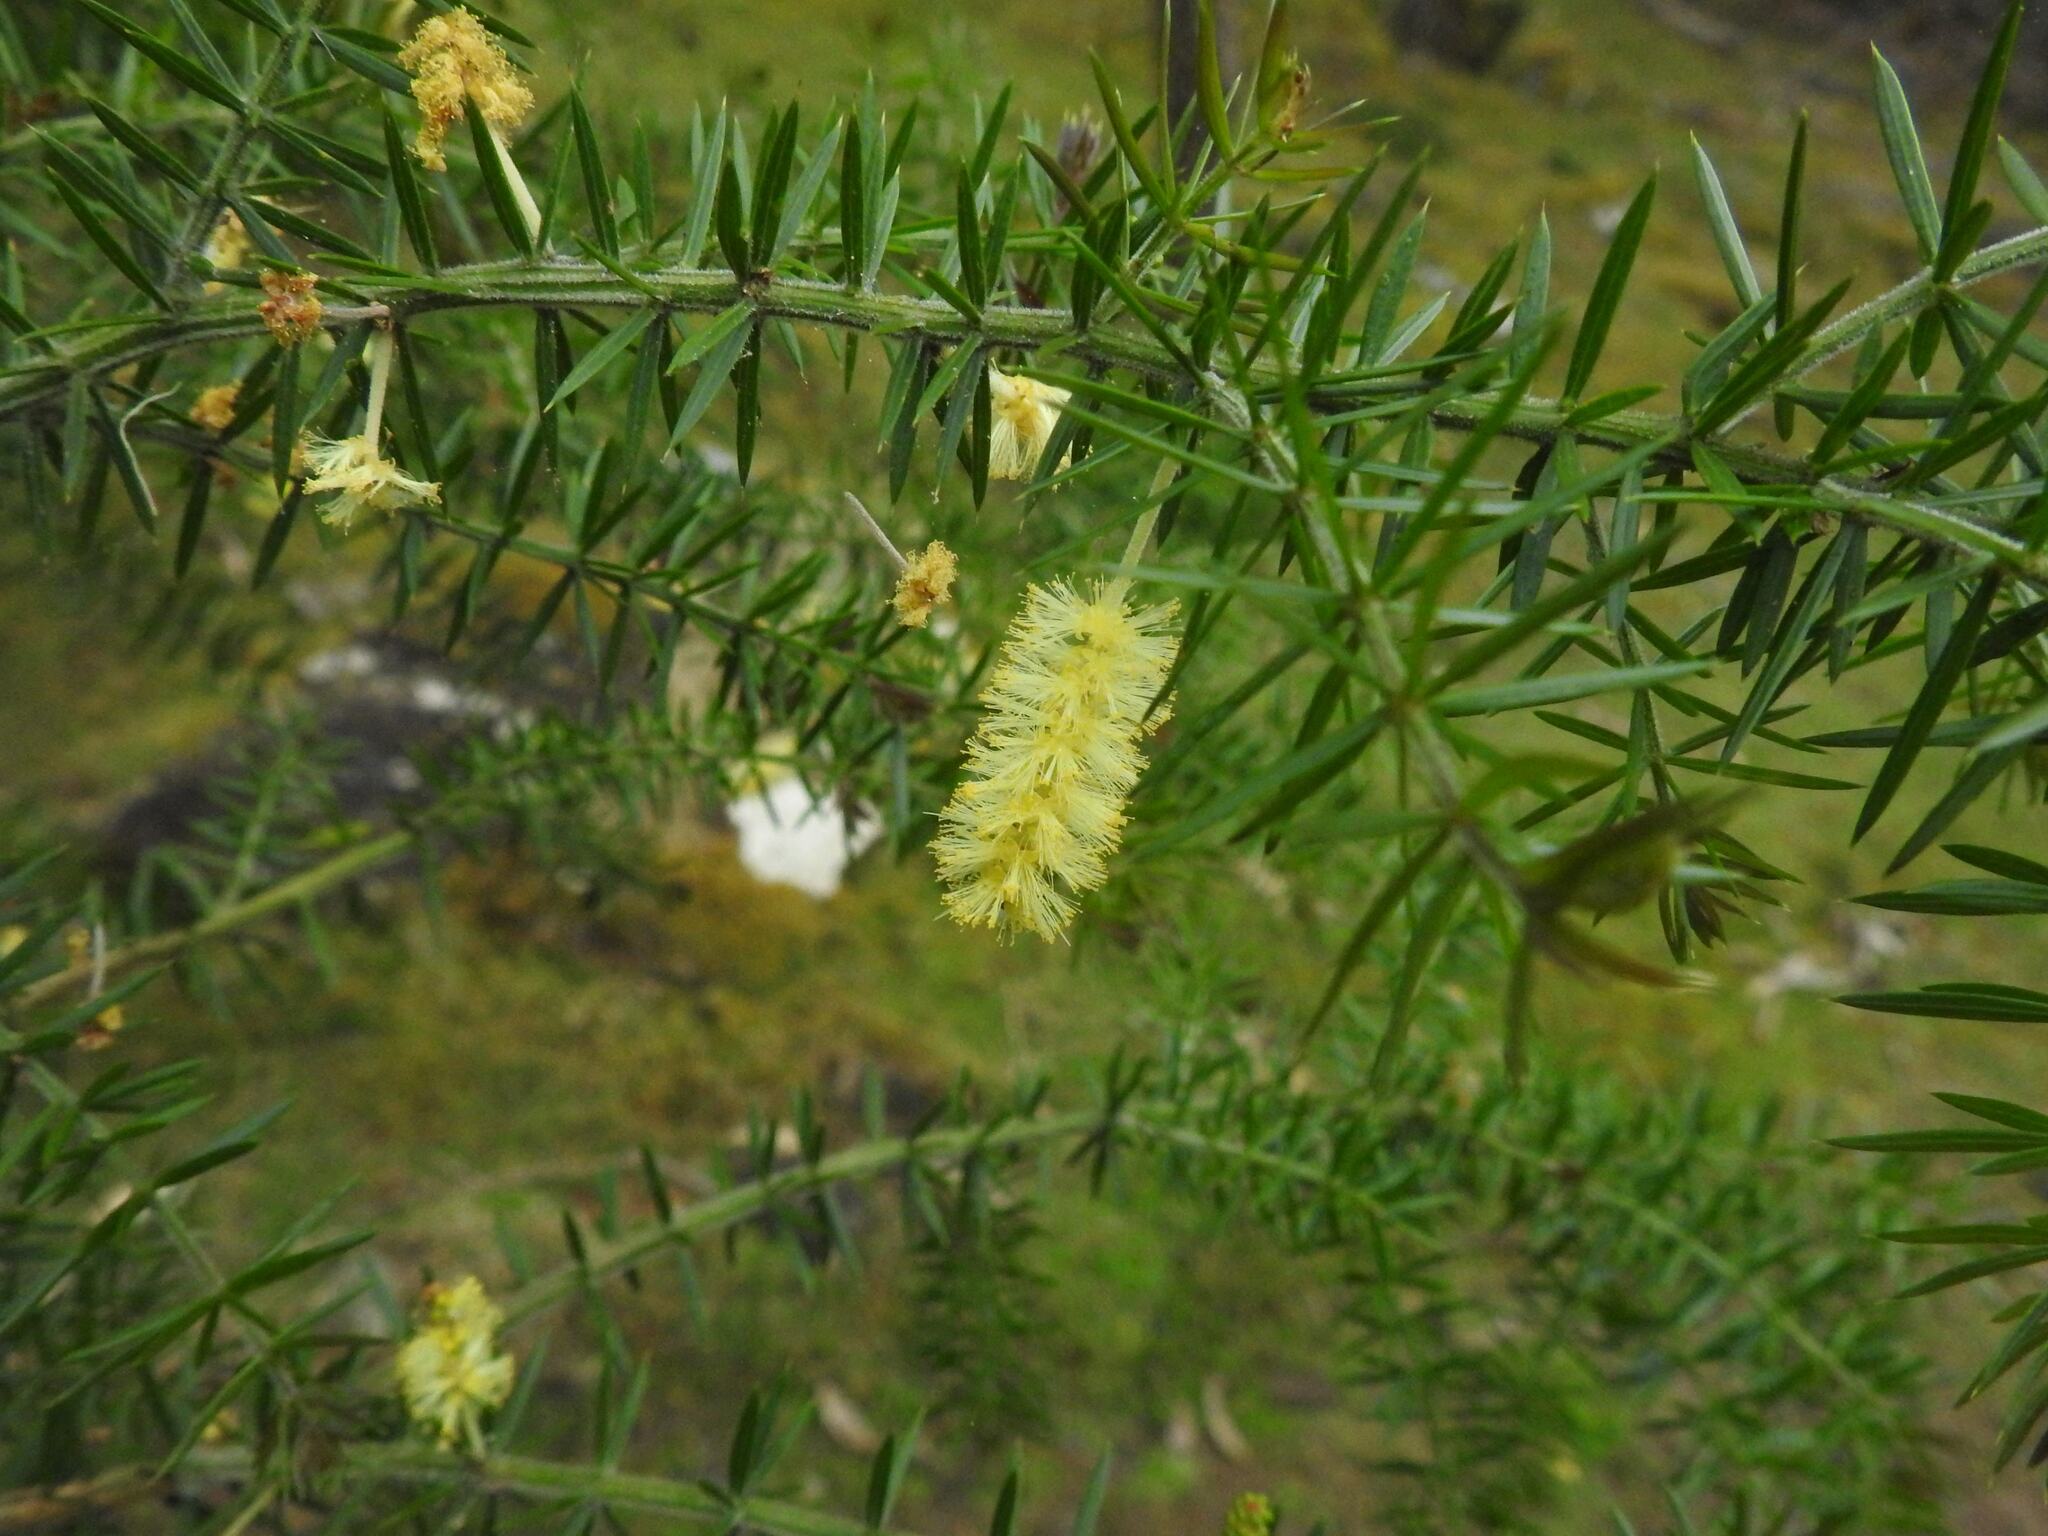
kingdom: Plantae
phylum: Tracheophyta
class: Magnoliopsida
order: Fabales
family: Fabaceae
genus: Acacia
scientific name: Acacia verticillata
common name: Prickly moses
